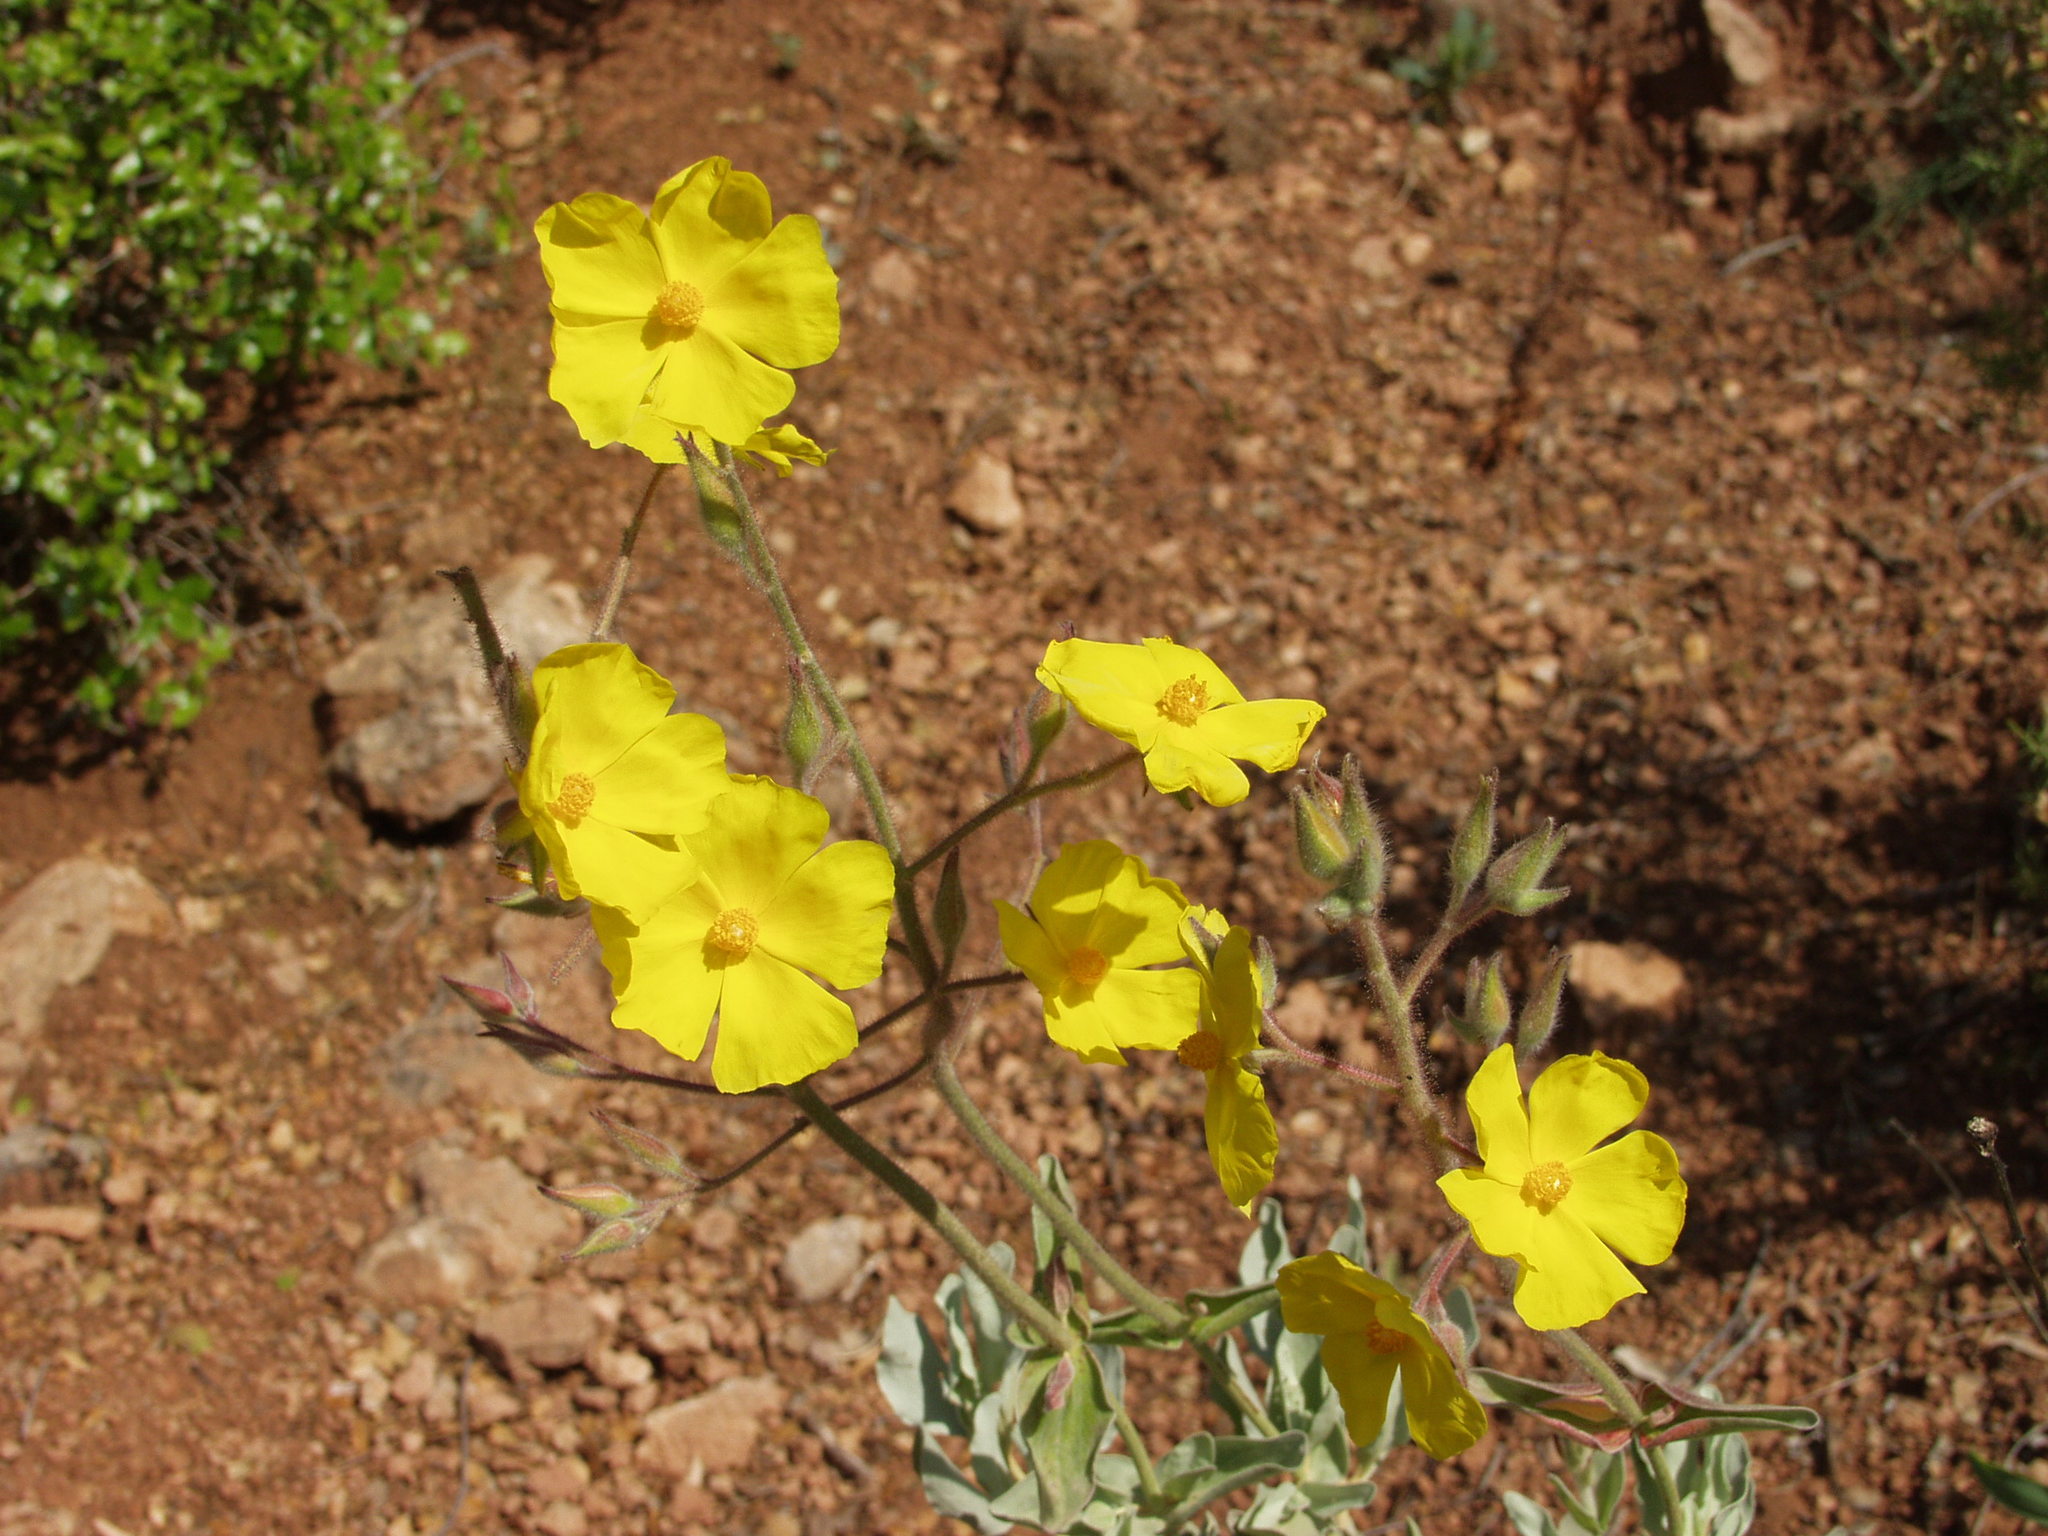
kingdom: Plantae
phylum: Tracheophyta
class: Magnoliopsida
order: Malvales
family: Cistaceae
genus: Halimium
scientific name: Halimium atriplicifolium
